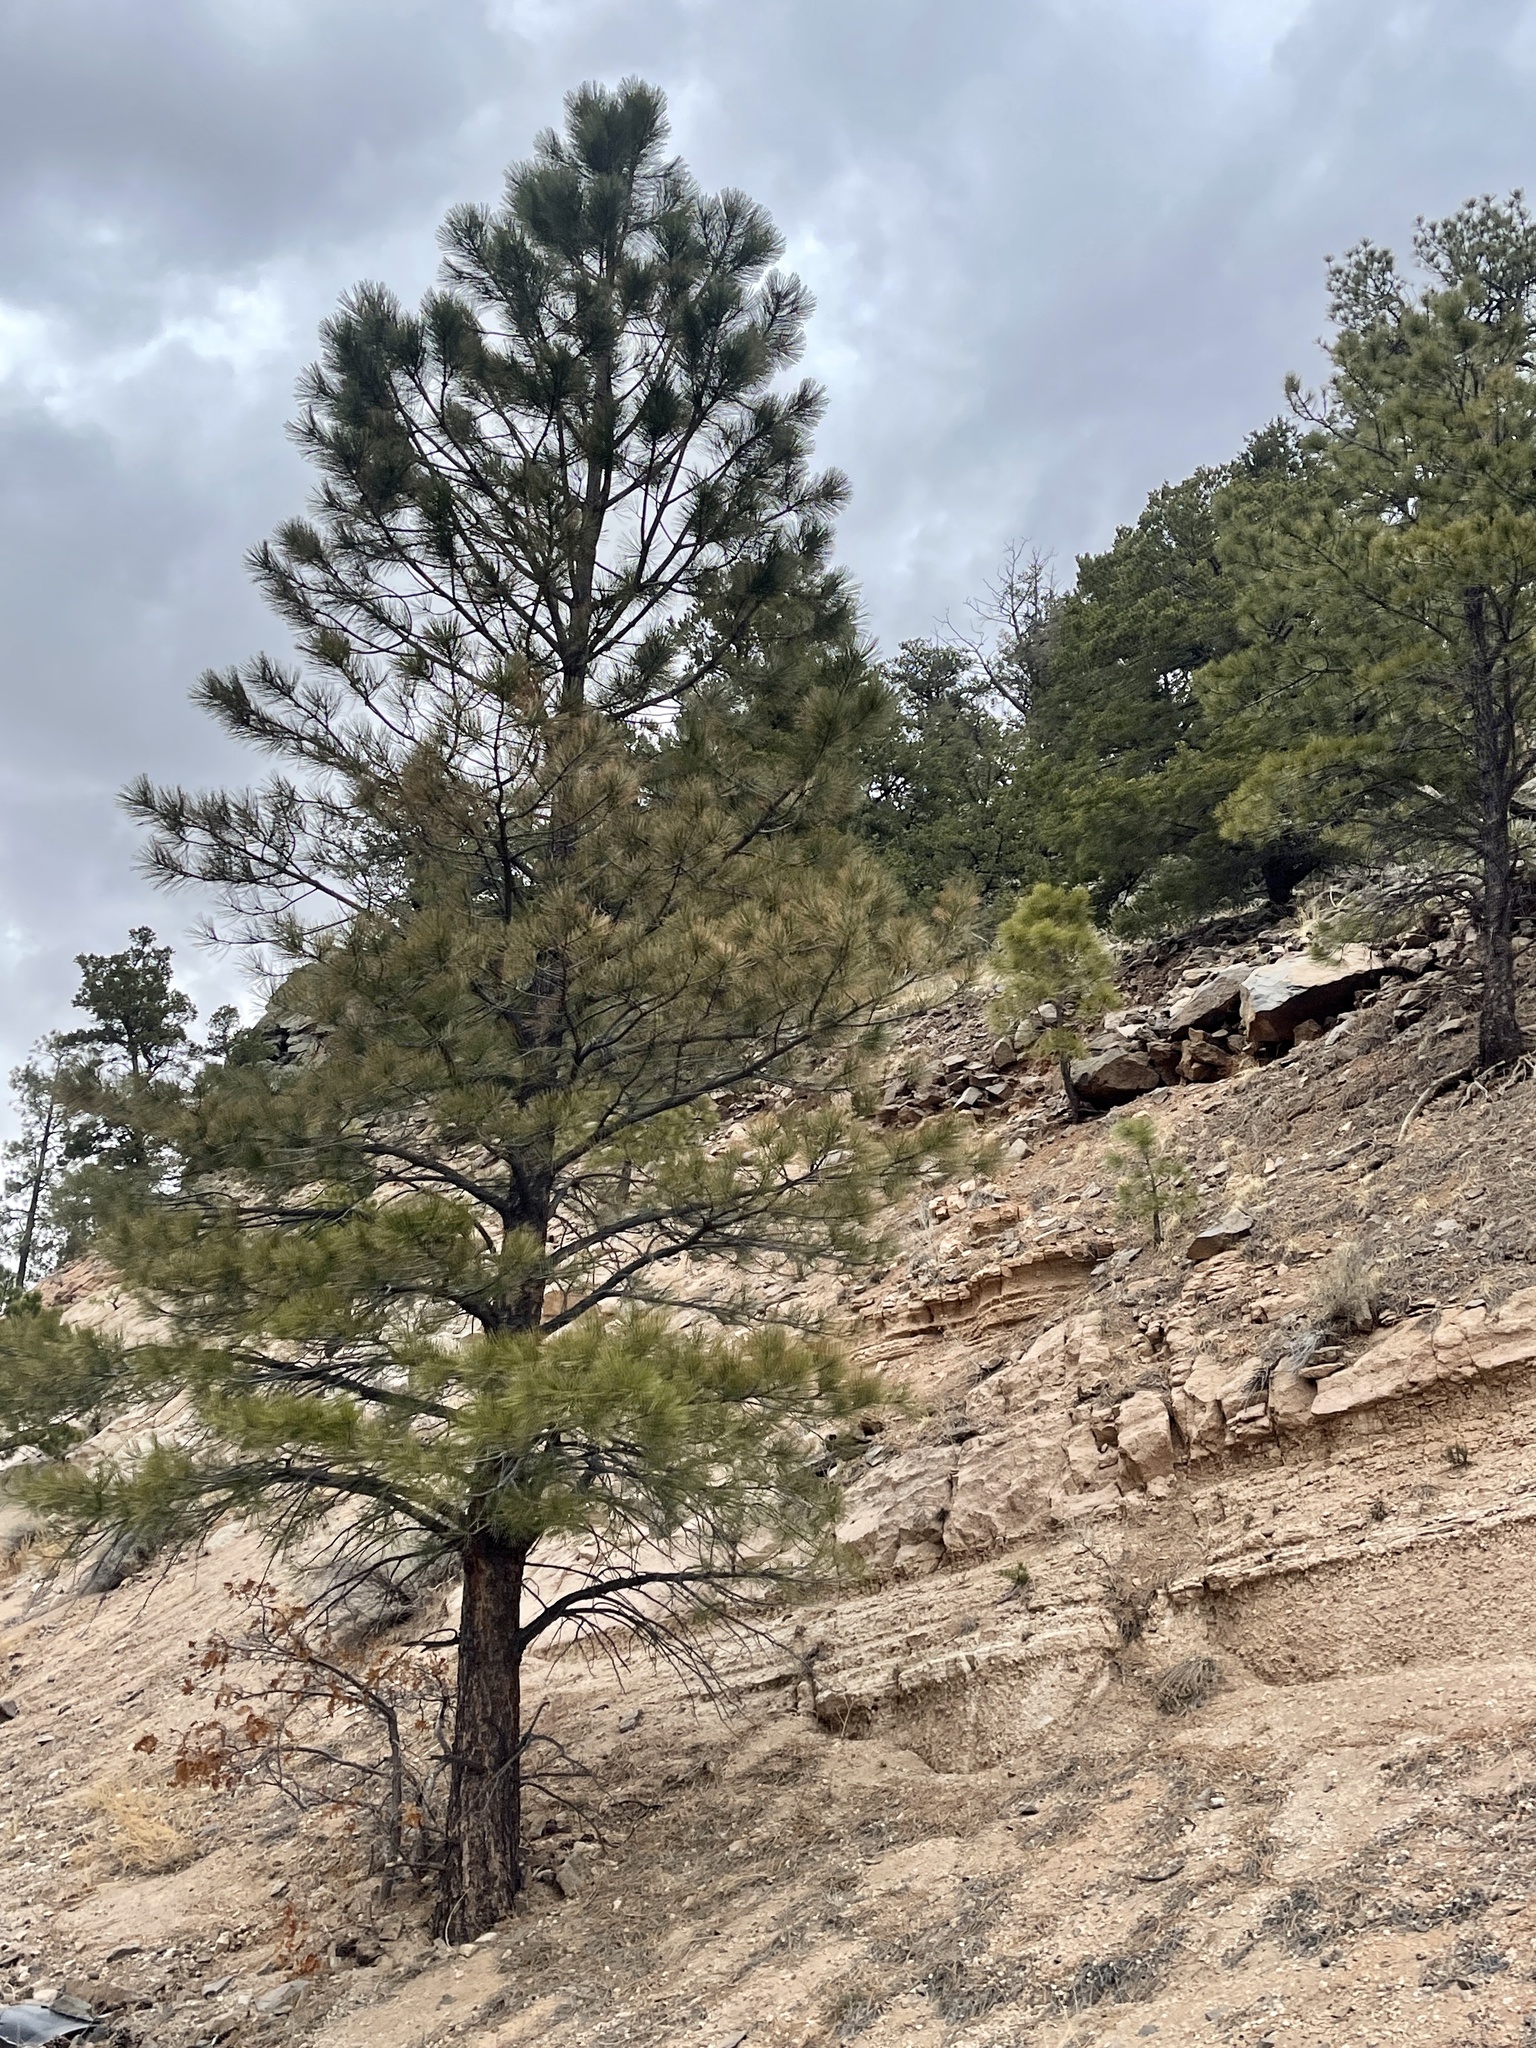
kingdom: Plantae
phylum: Tracheophyta
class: Pinopsida
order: Pinales
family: Pinaceae
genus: Pinus
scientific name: Pinus ponderosa
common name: Western yellow-pine
